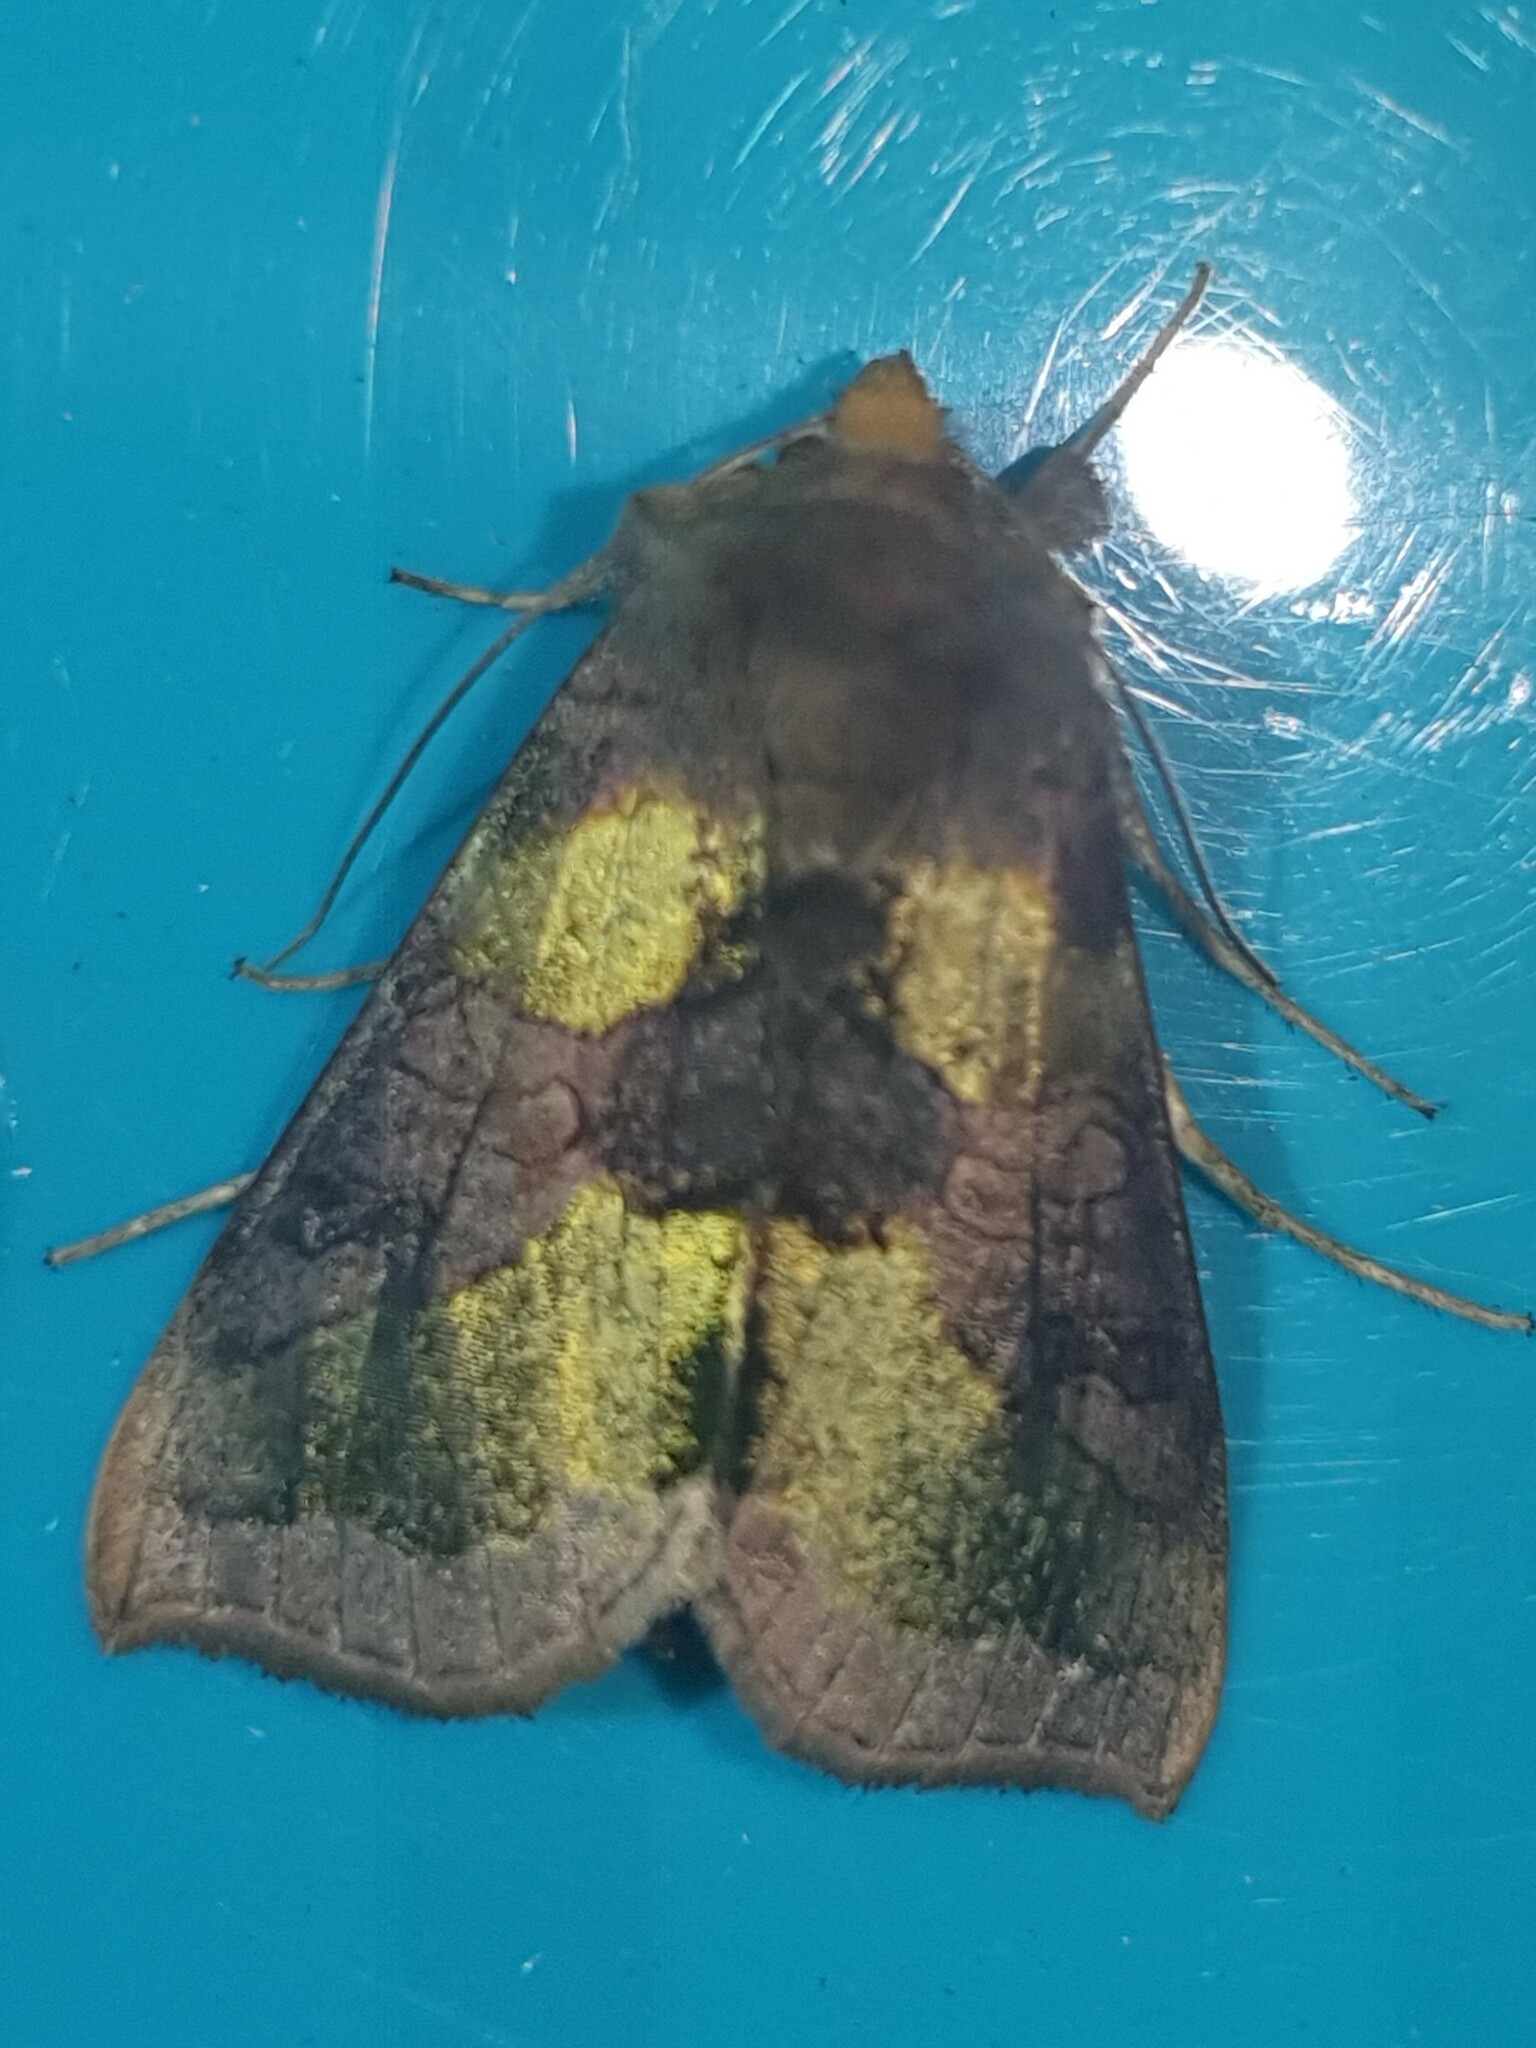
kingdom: Animalia
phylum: Arthropoda
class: Insecta
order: Lepidoptera
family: Noctuidae
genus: Diachrysia
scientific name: Diachrysia chrysitis
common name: Burnished brass
